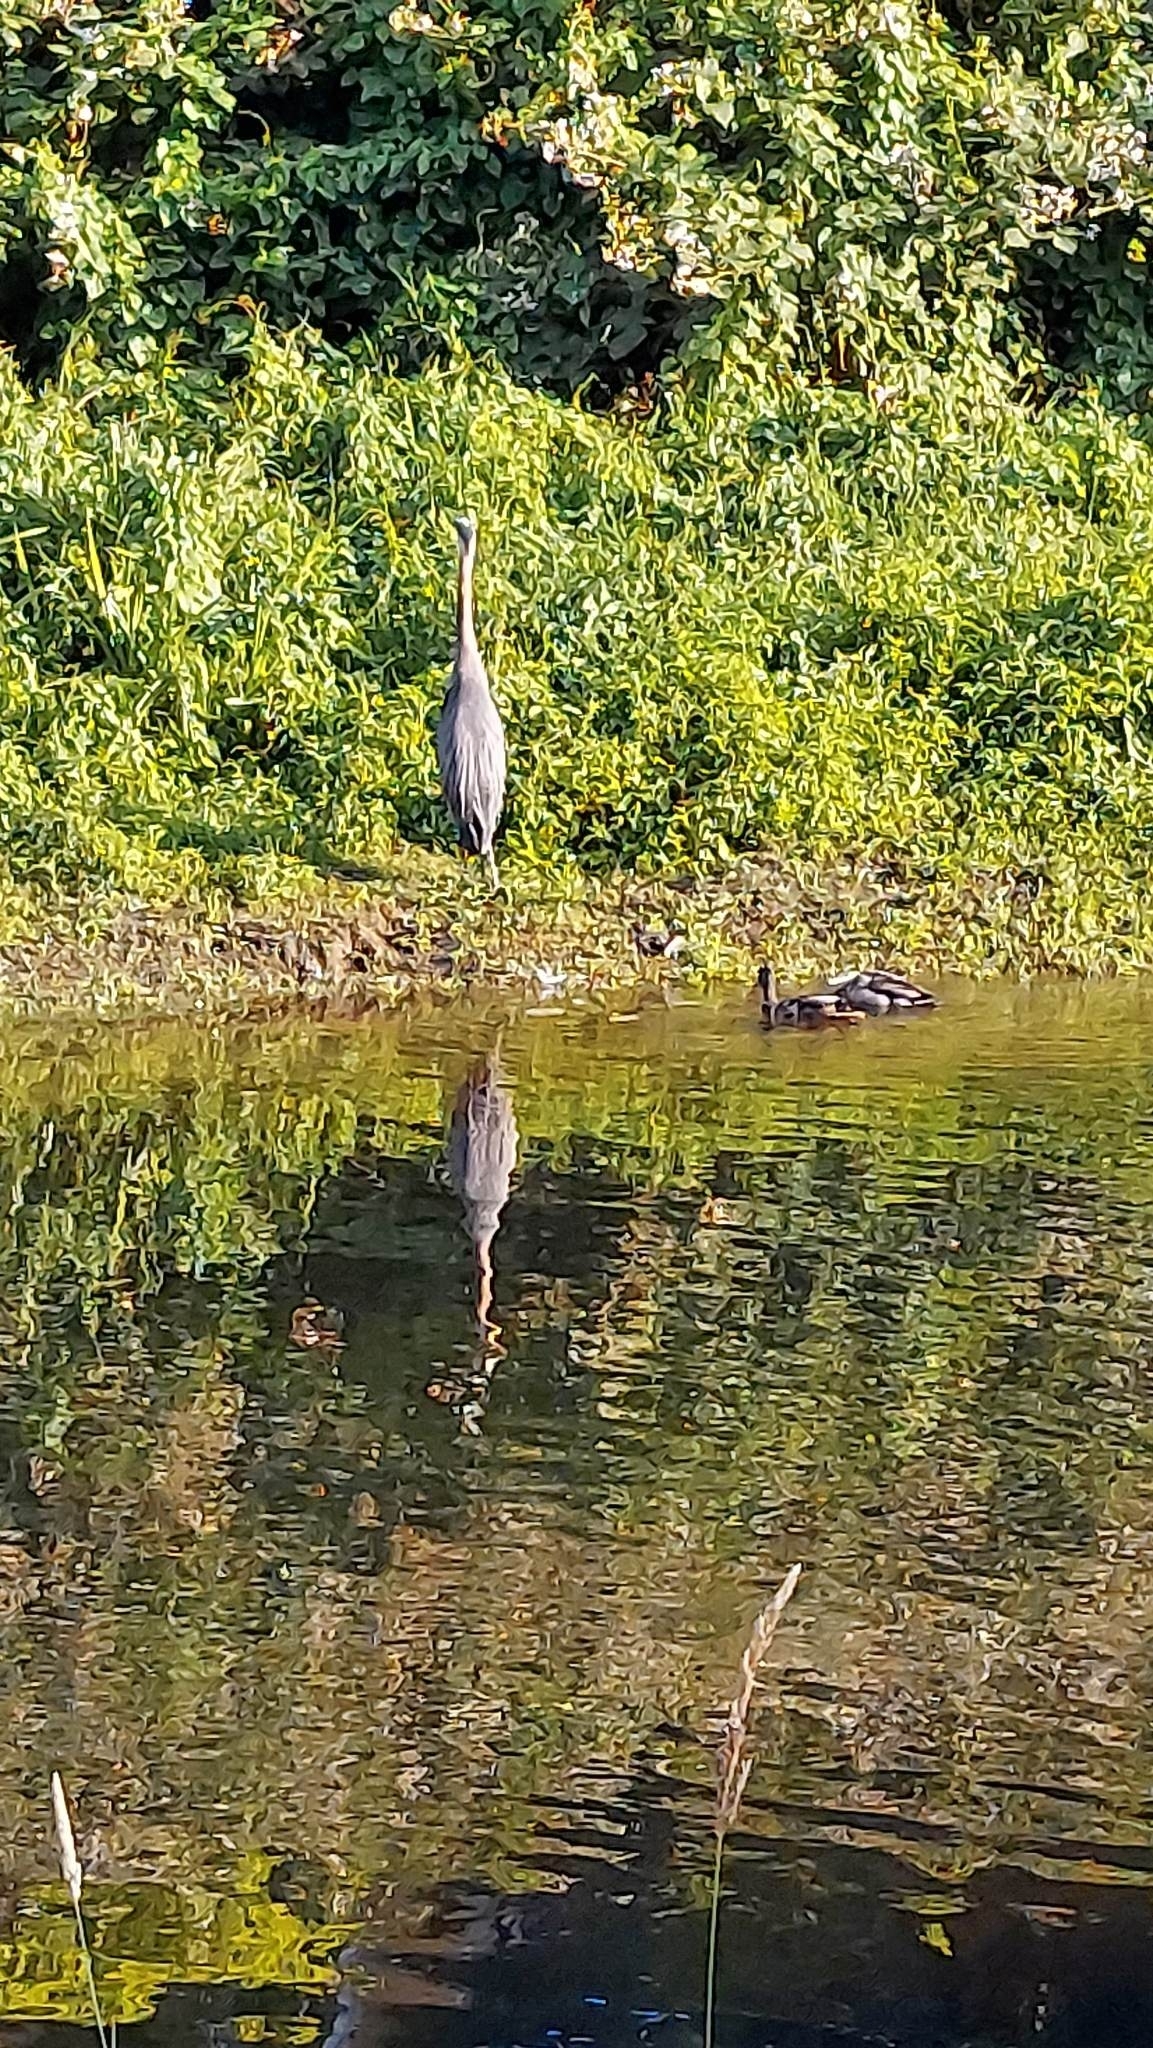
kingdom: Animalia
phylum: Chordata
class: Aves
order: Pelecaniformes
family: Ardeidae
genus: Ardea
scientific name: Ardea herodias
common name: Great blue heron
